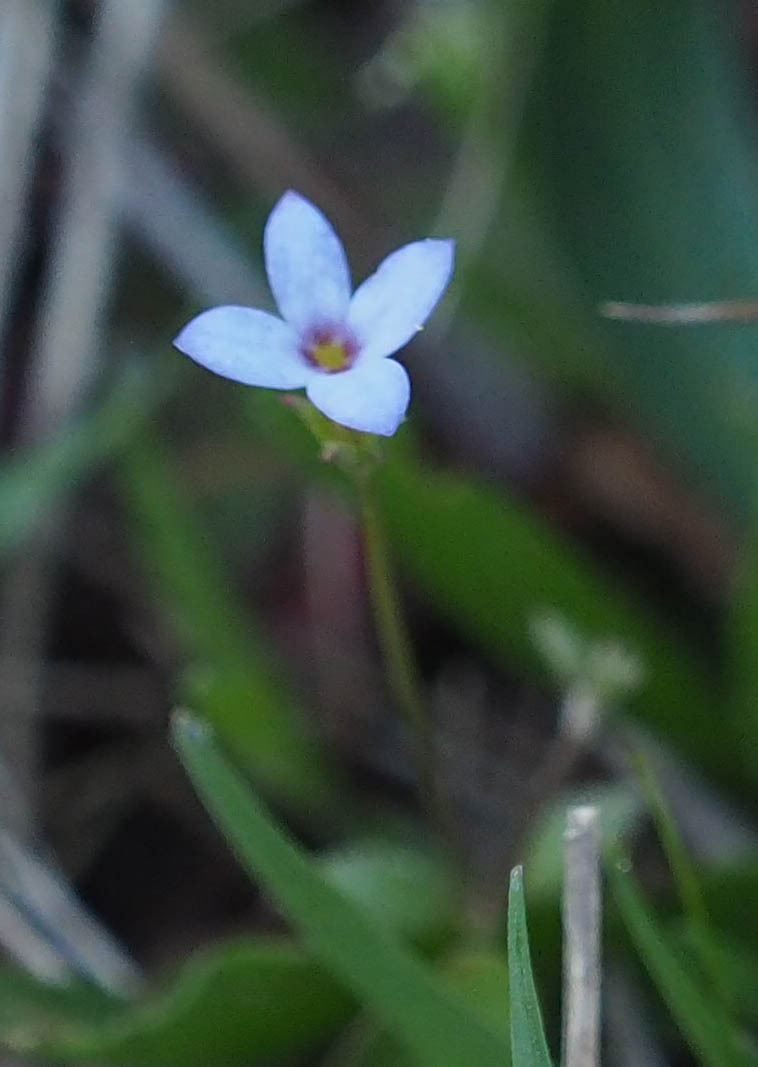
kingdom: Plantae
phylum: Tracheophyta
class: Magnoliopsida
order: Gentianales
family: Rubiaceae
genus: Houstonia
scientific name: Houstonia pusilla
